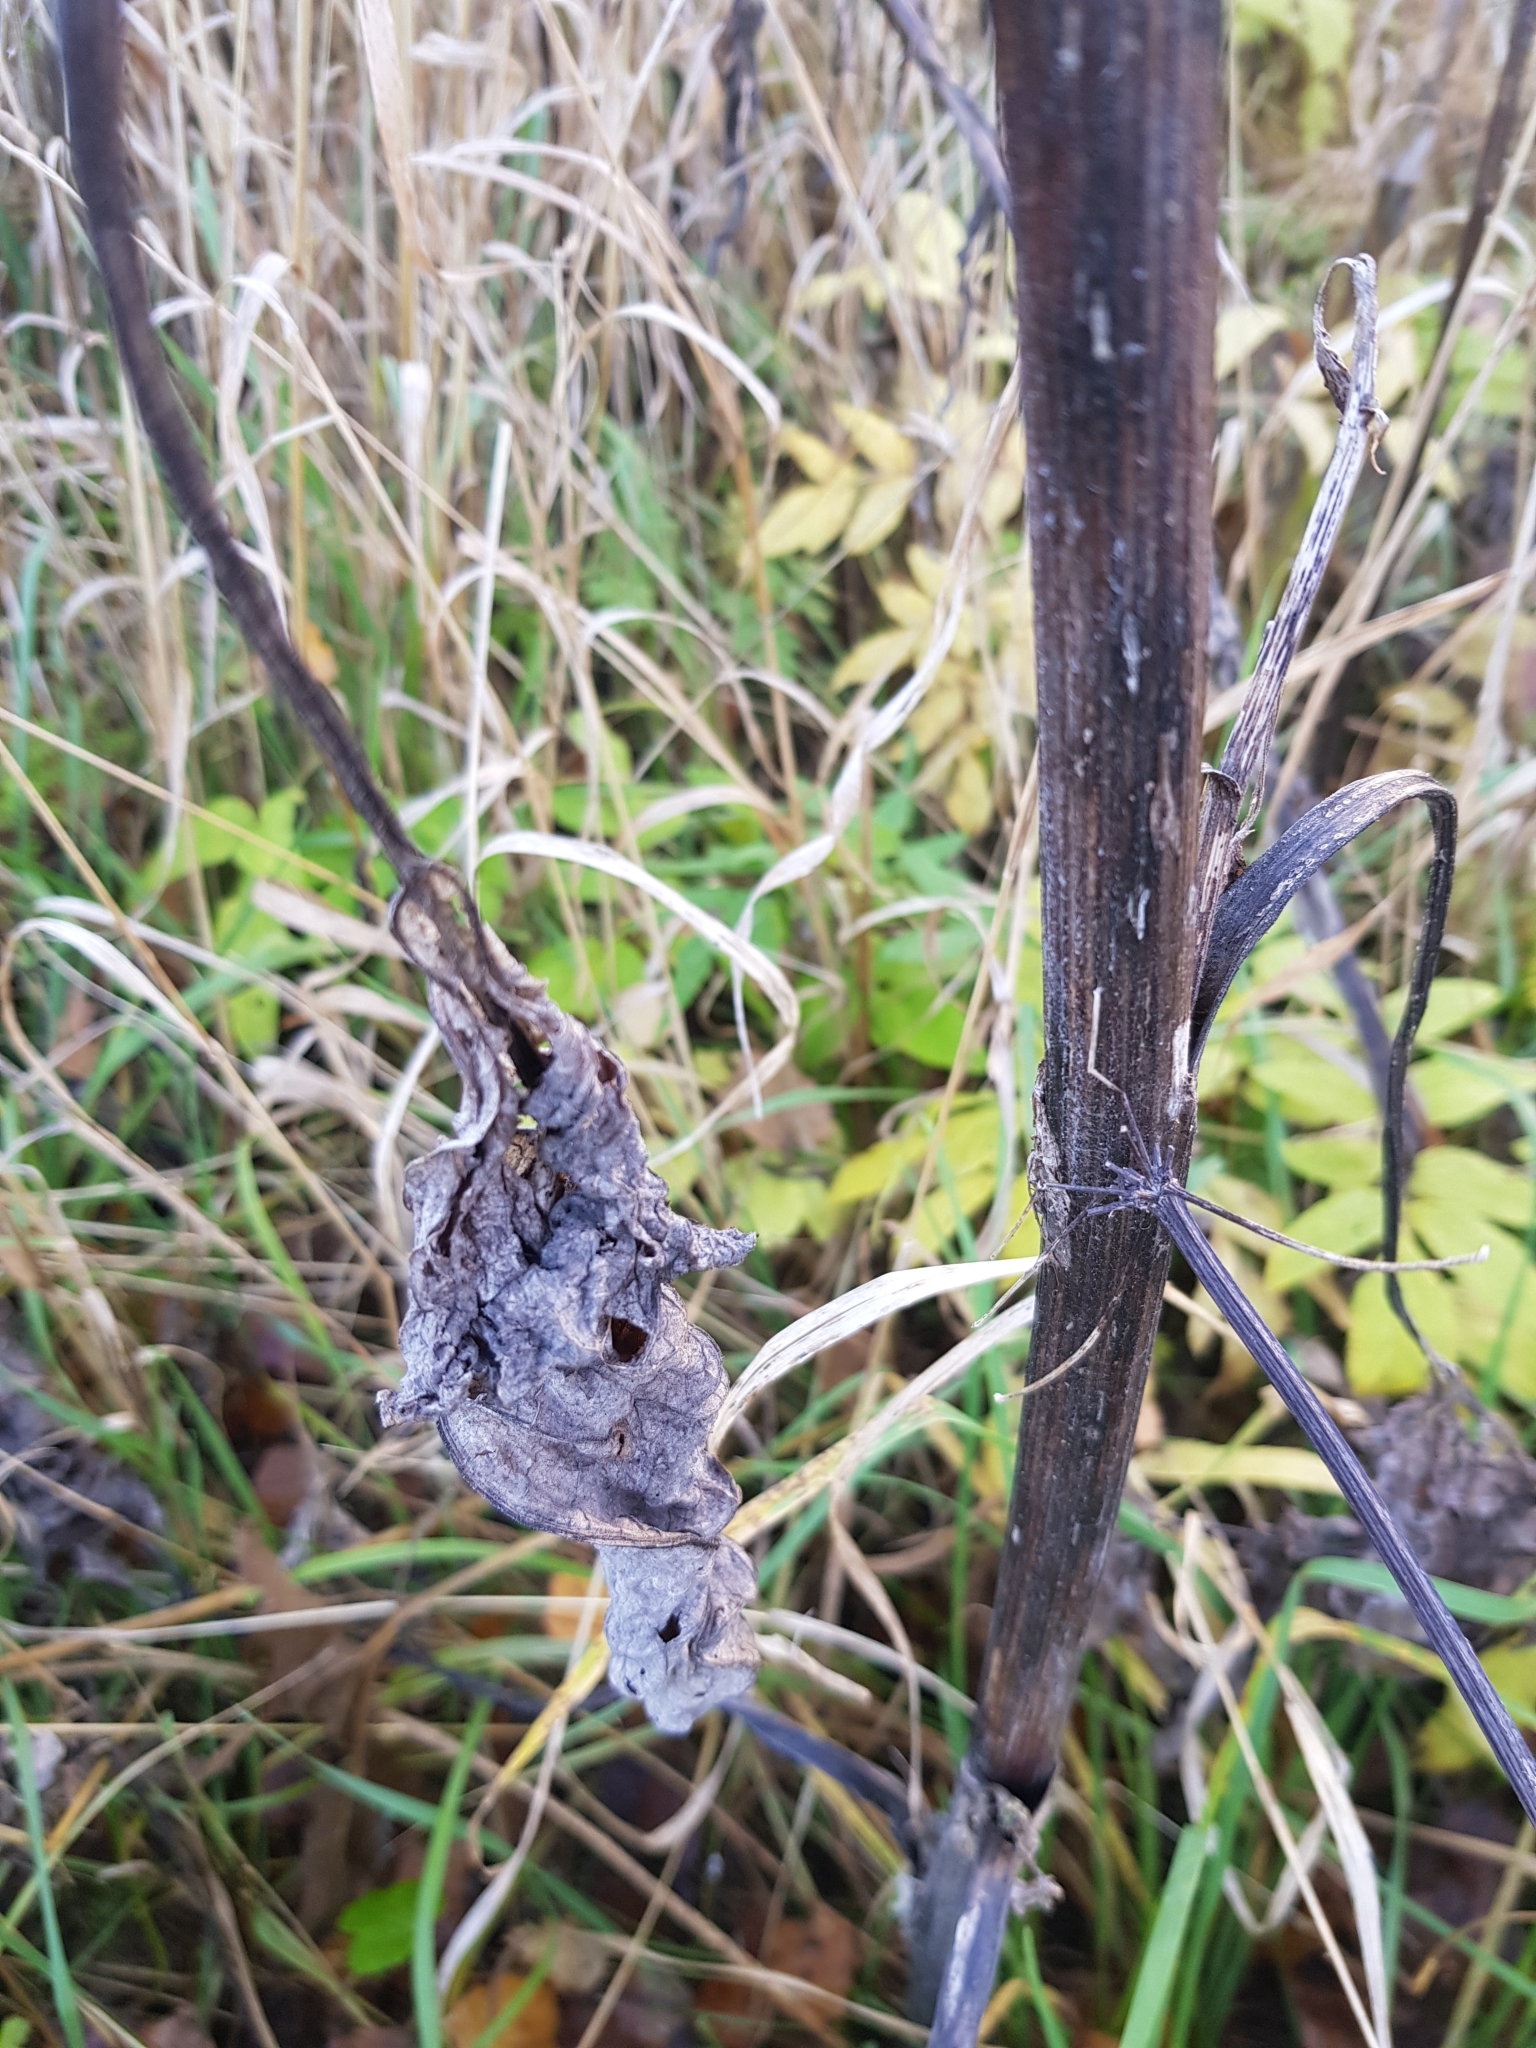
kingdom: Plantae
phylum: Tracheophyta
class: Magnoliopsida
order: Asterales
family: Asteraceae
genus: Arctium
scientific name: Arctium tomentosum
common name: Woolly burdock
